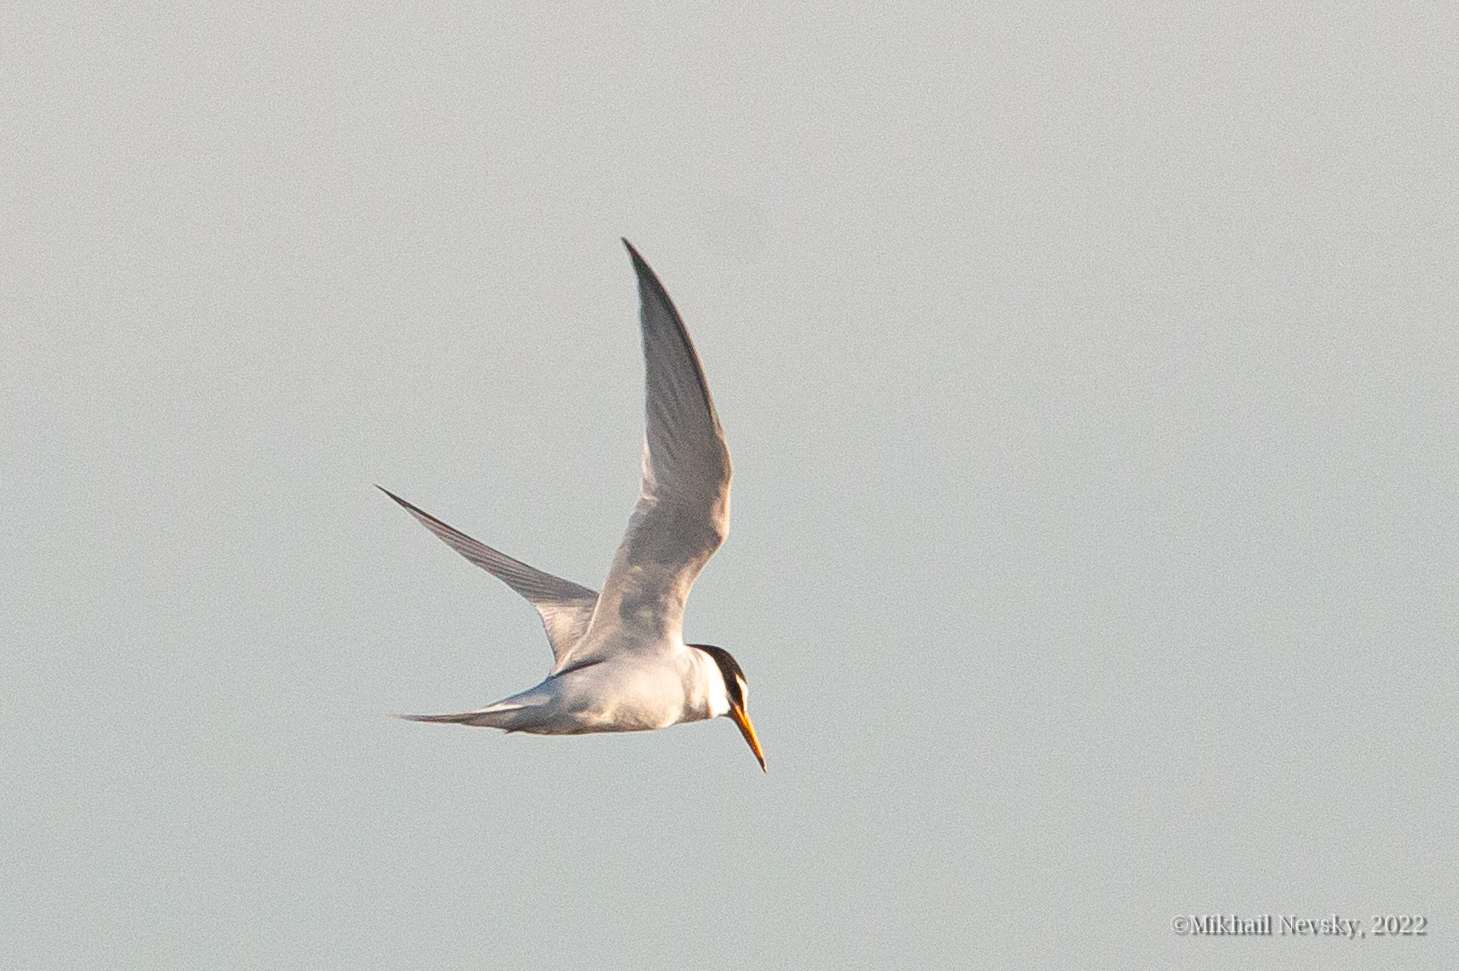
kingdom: Animalia
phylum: Chordata
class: Aves
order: Charadriiformes
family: Laridae
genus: Sternula
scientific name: Sternula albifrons
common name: Little tern
